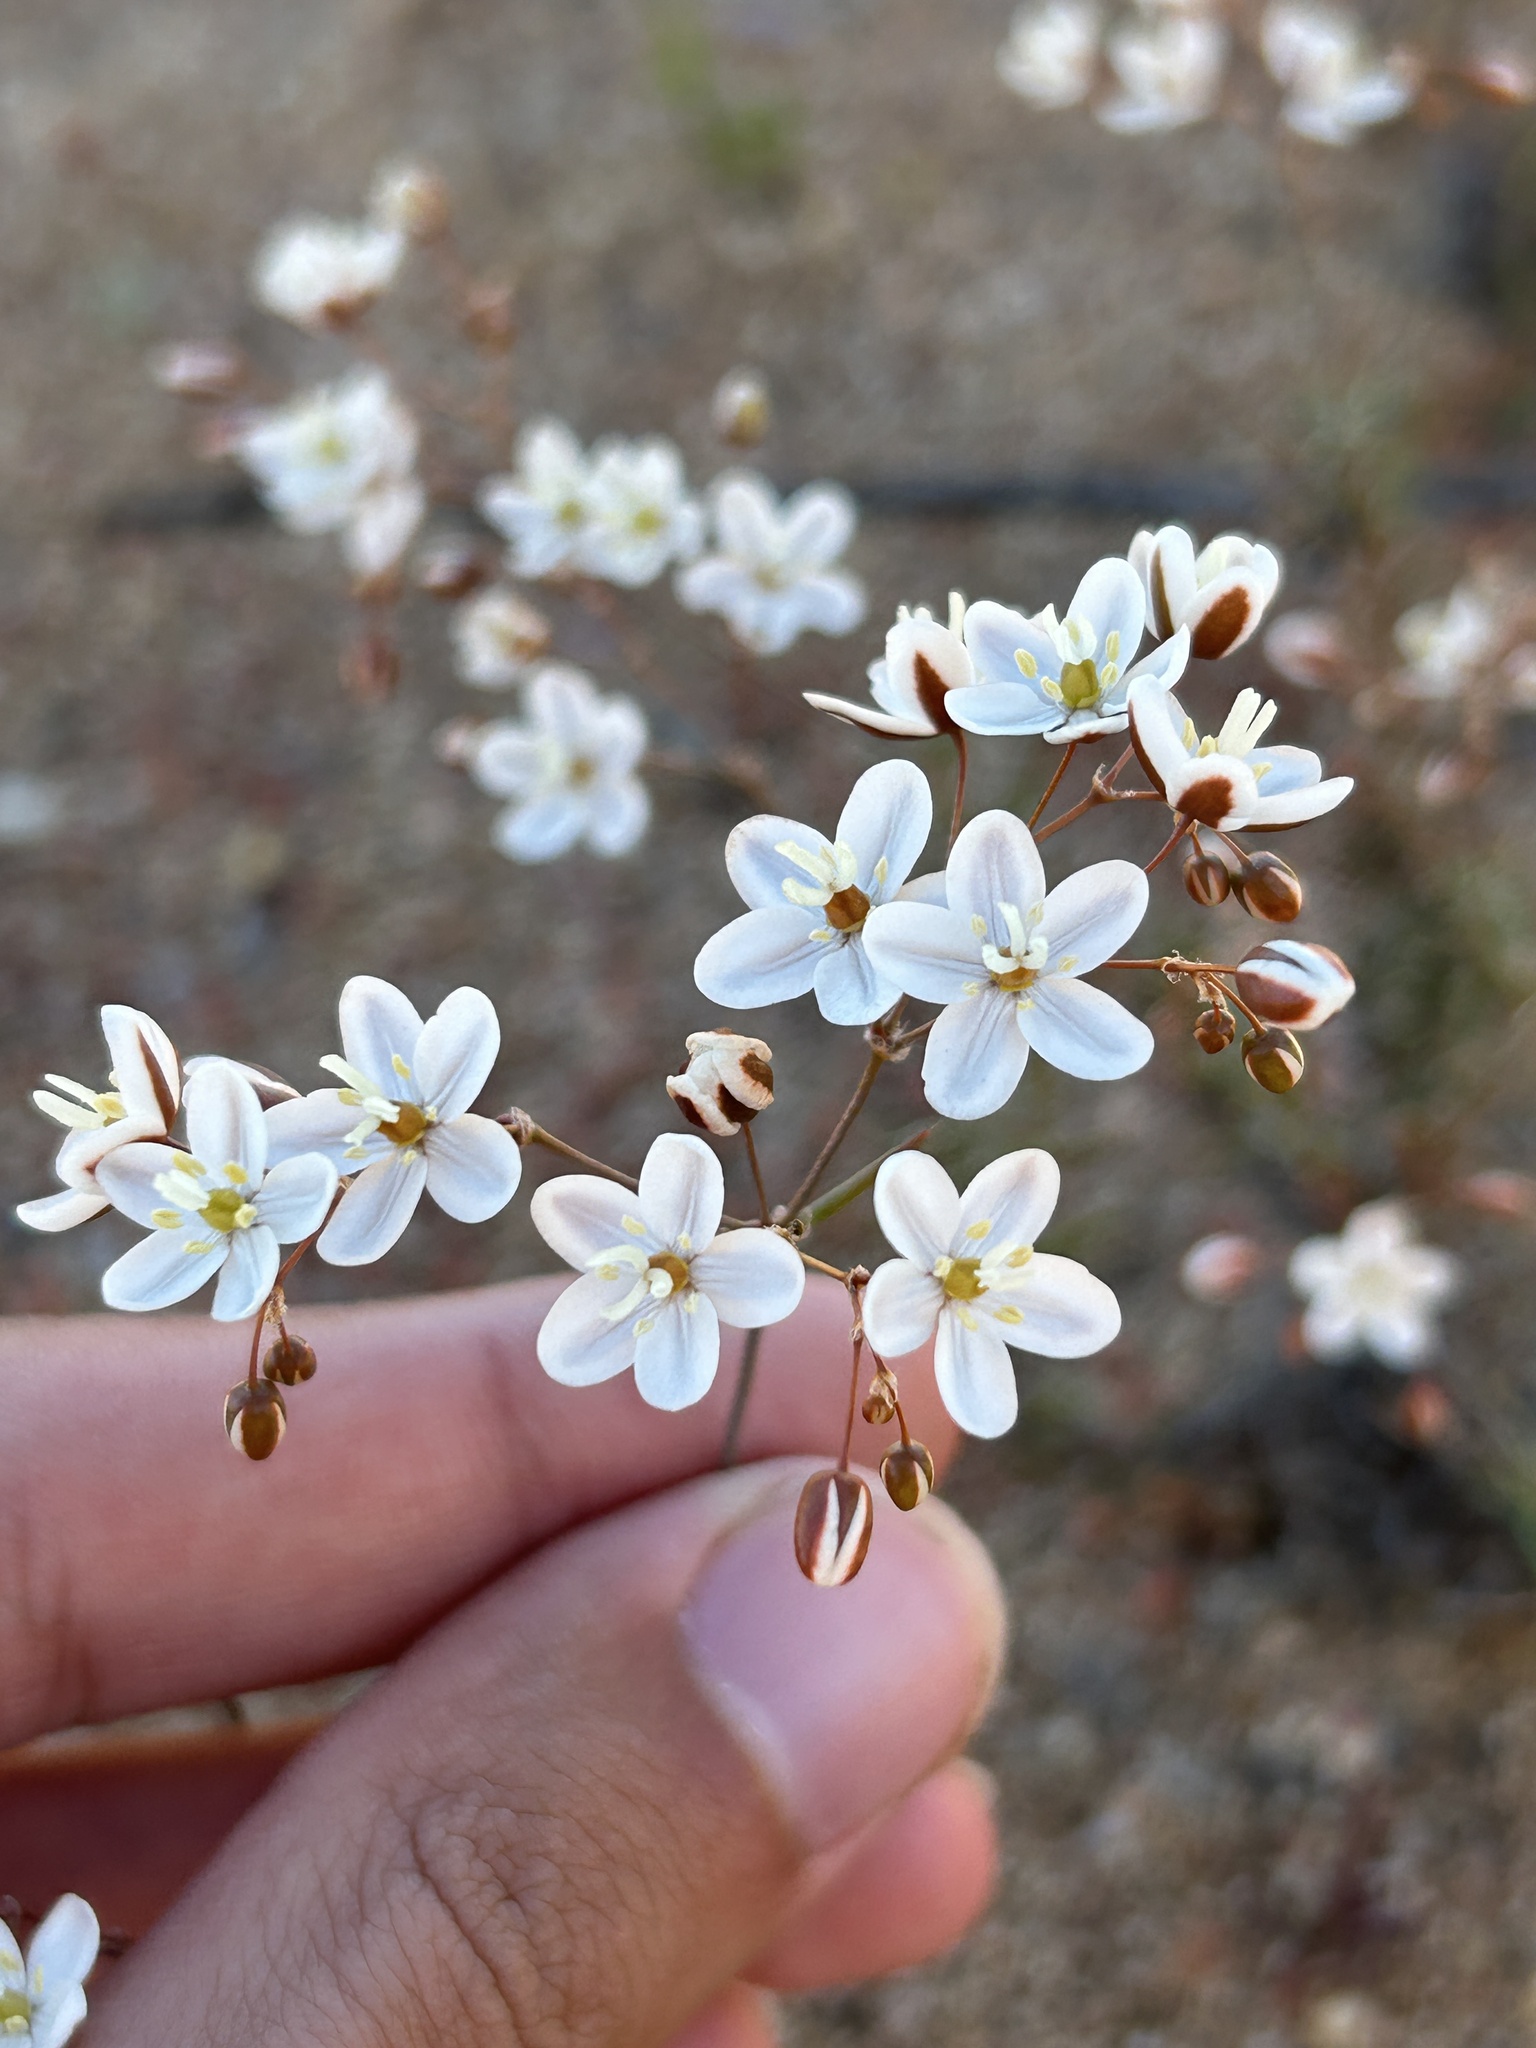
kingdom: Plantae
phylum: Tracheophyta
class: Magnoliopsida
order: Caryophyllales
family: Molluginaceae
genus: Pharnaceum
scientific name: Pharnaceum aurantium
